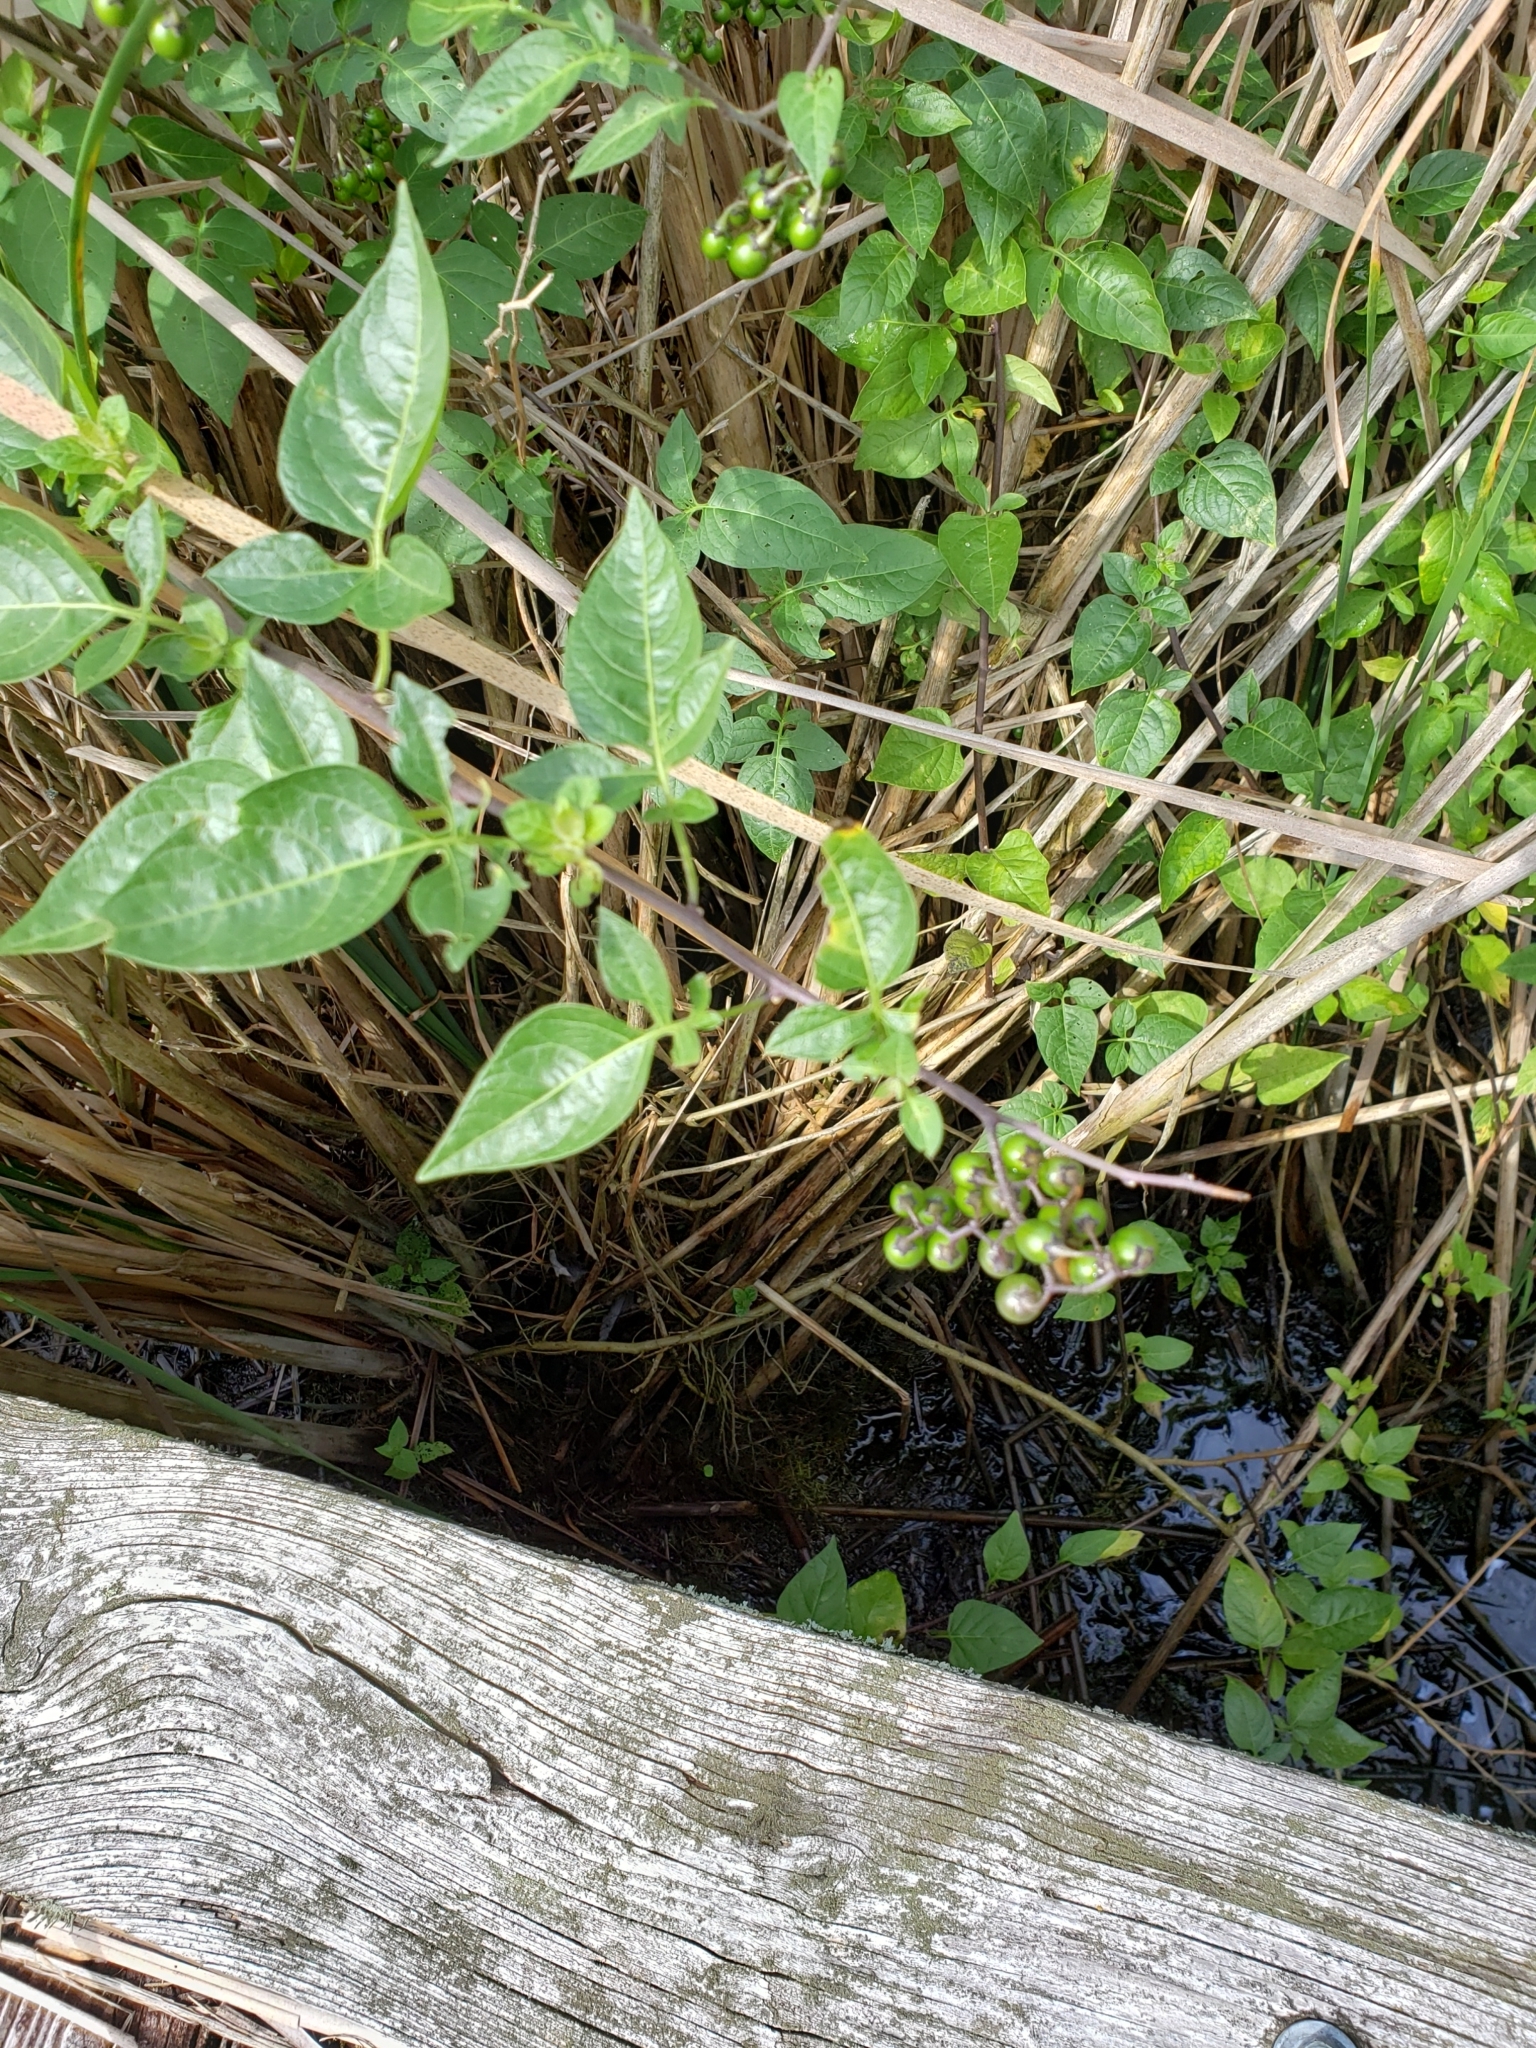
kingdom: Plantae
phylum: Tracheophyta
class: Magnoliopsida
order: Solanales
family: Solanaceae
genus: Solanum
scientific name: Solanum dulcamara
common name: Climbing nightshade
